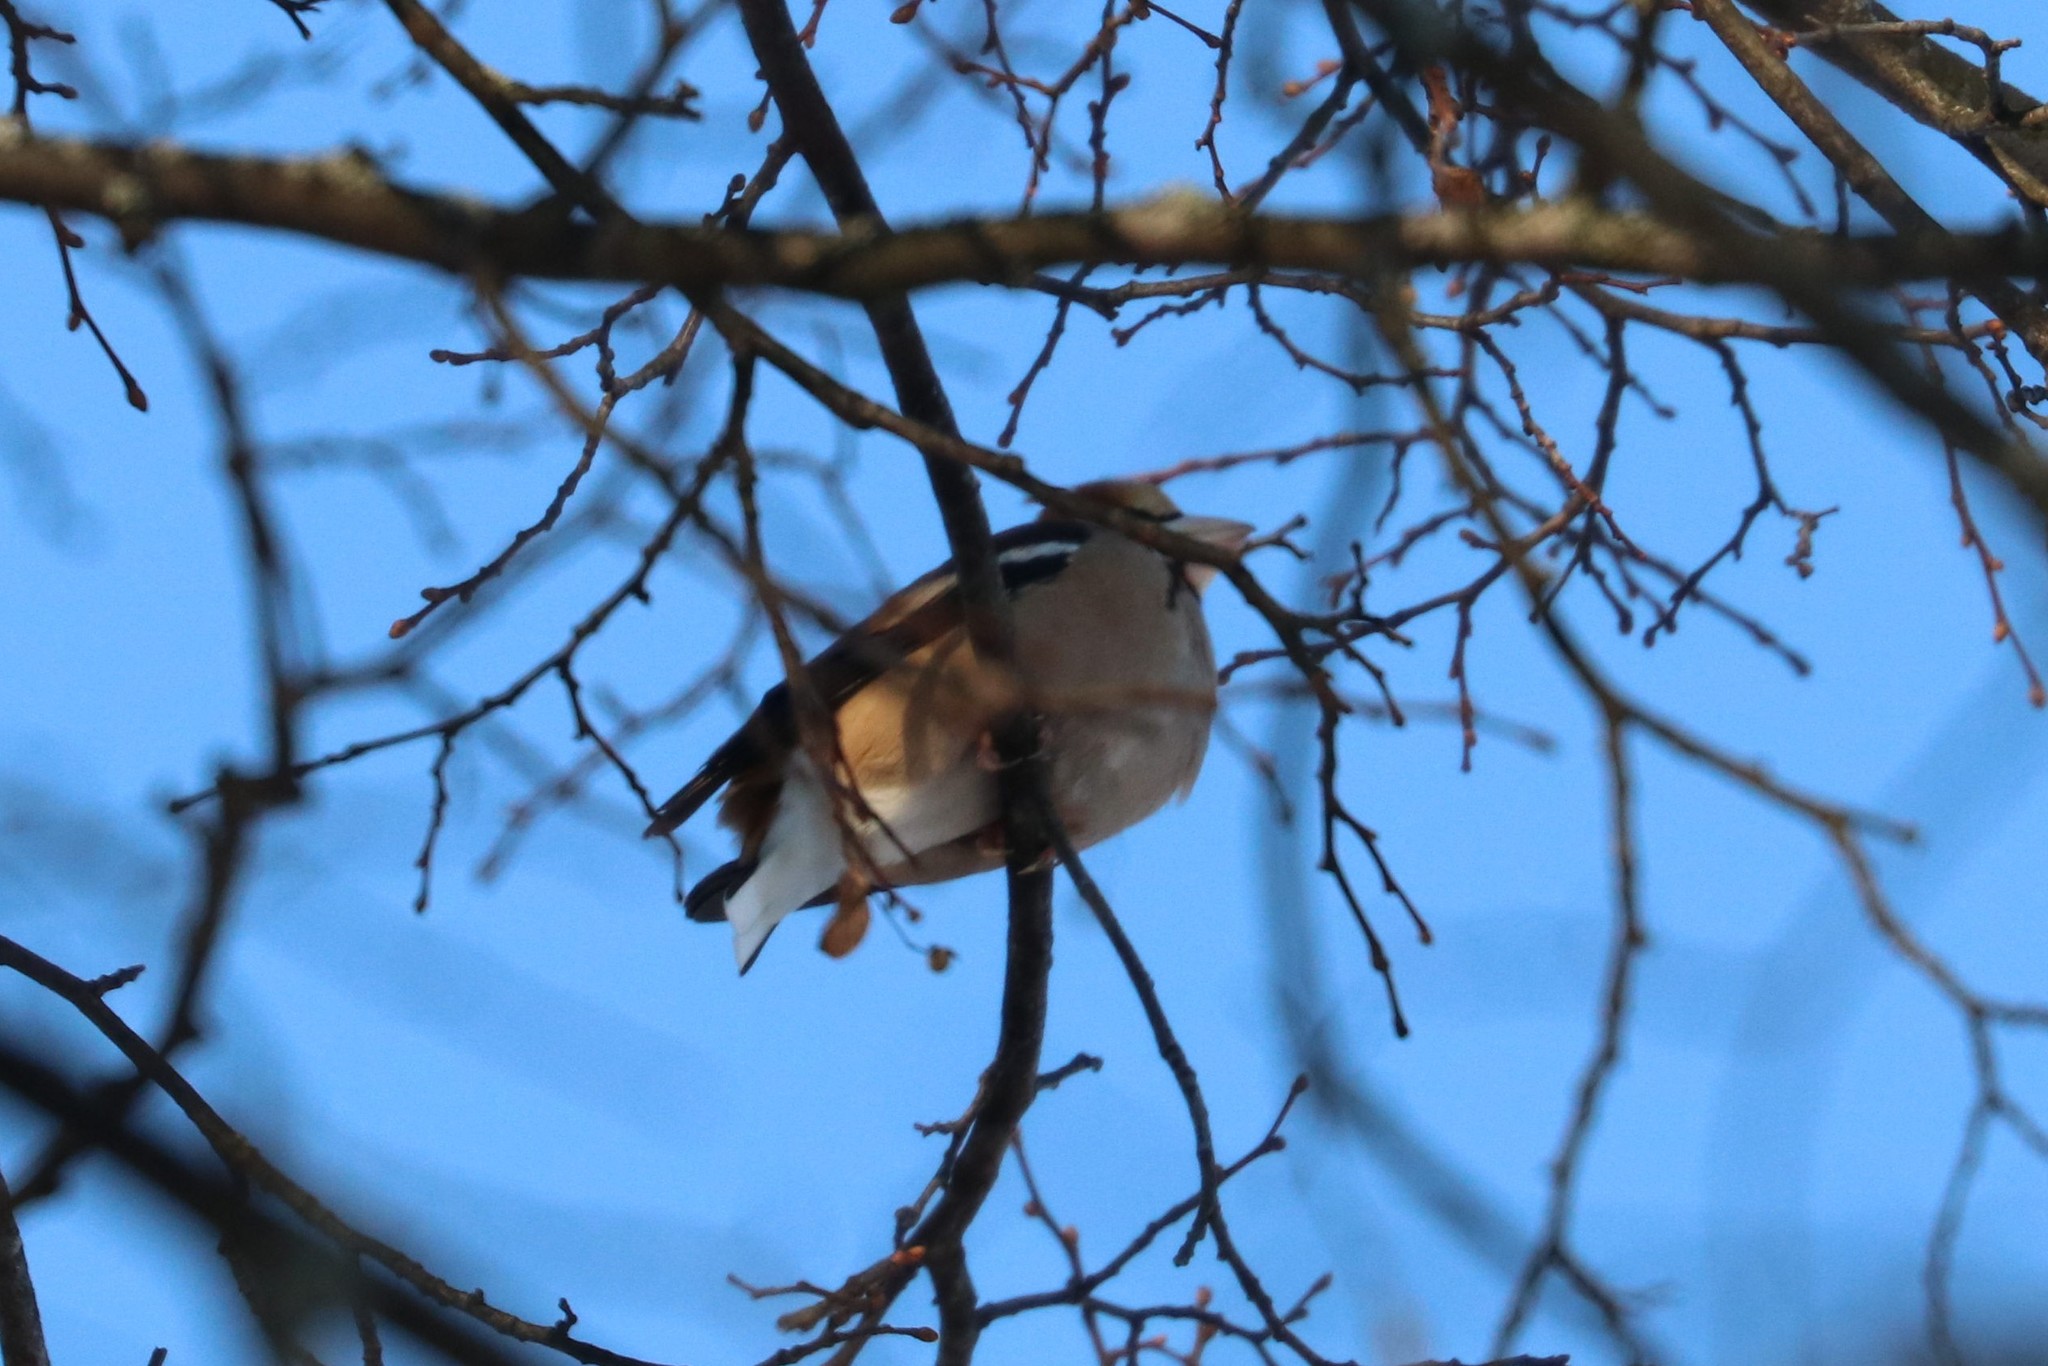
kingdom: Animalia
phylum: Chordata
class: Aves
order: Passeriformes
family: Fringillidae
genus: Coccothraustes
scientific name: Coccothraustes coccothraustes
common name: Hawfinch
